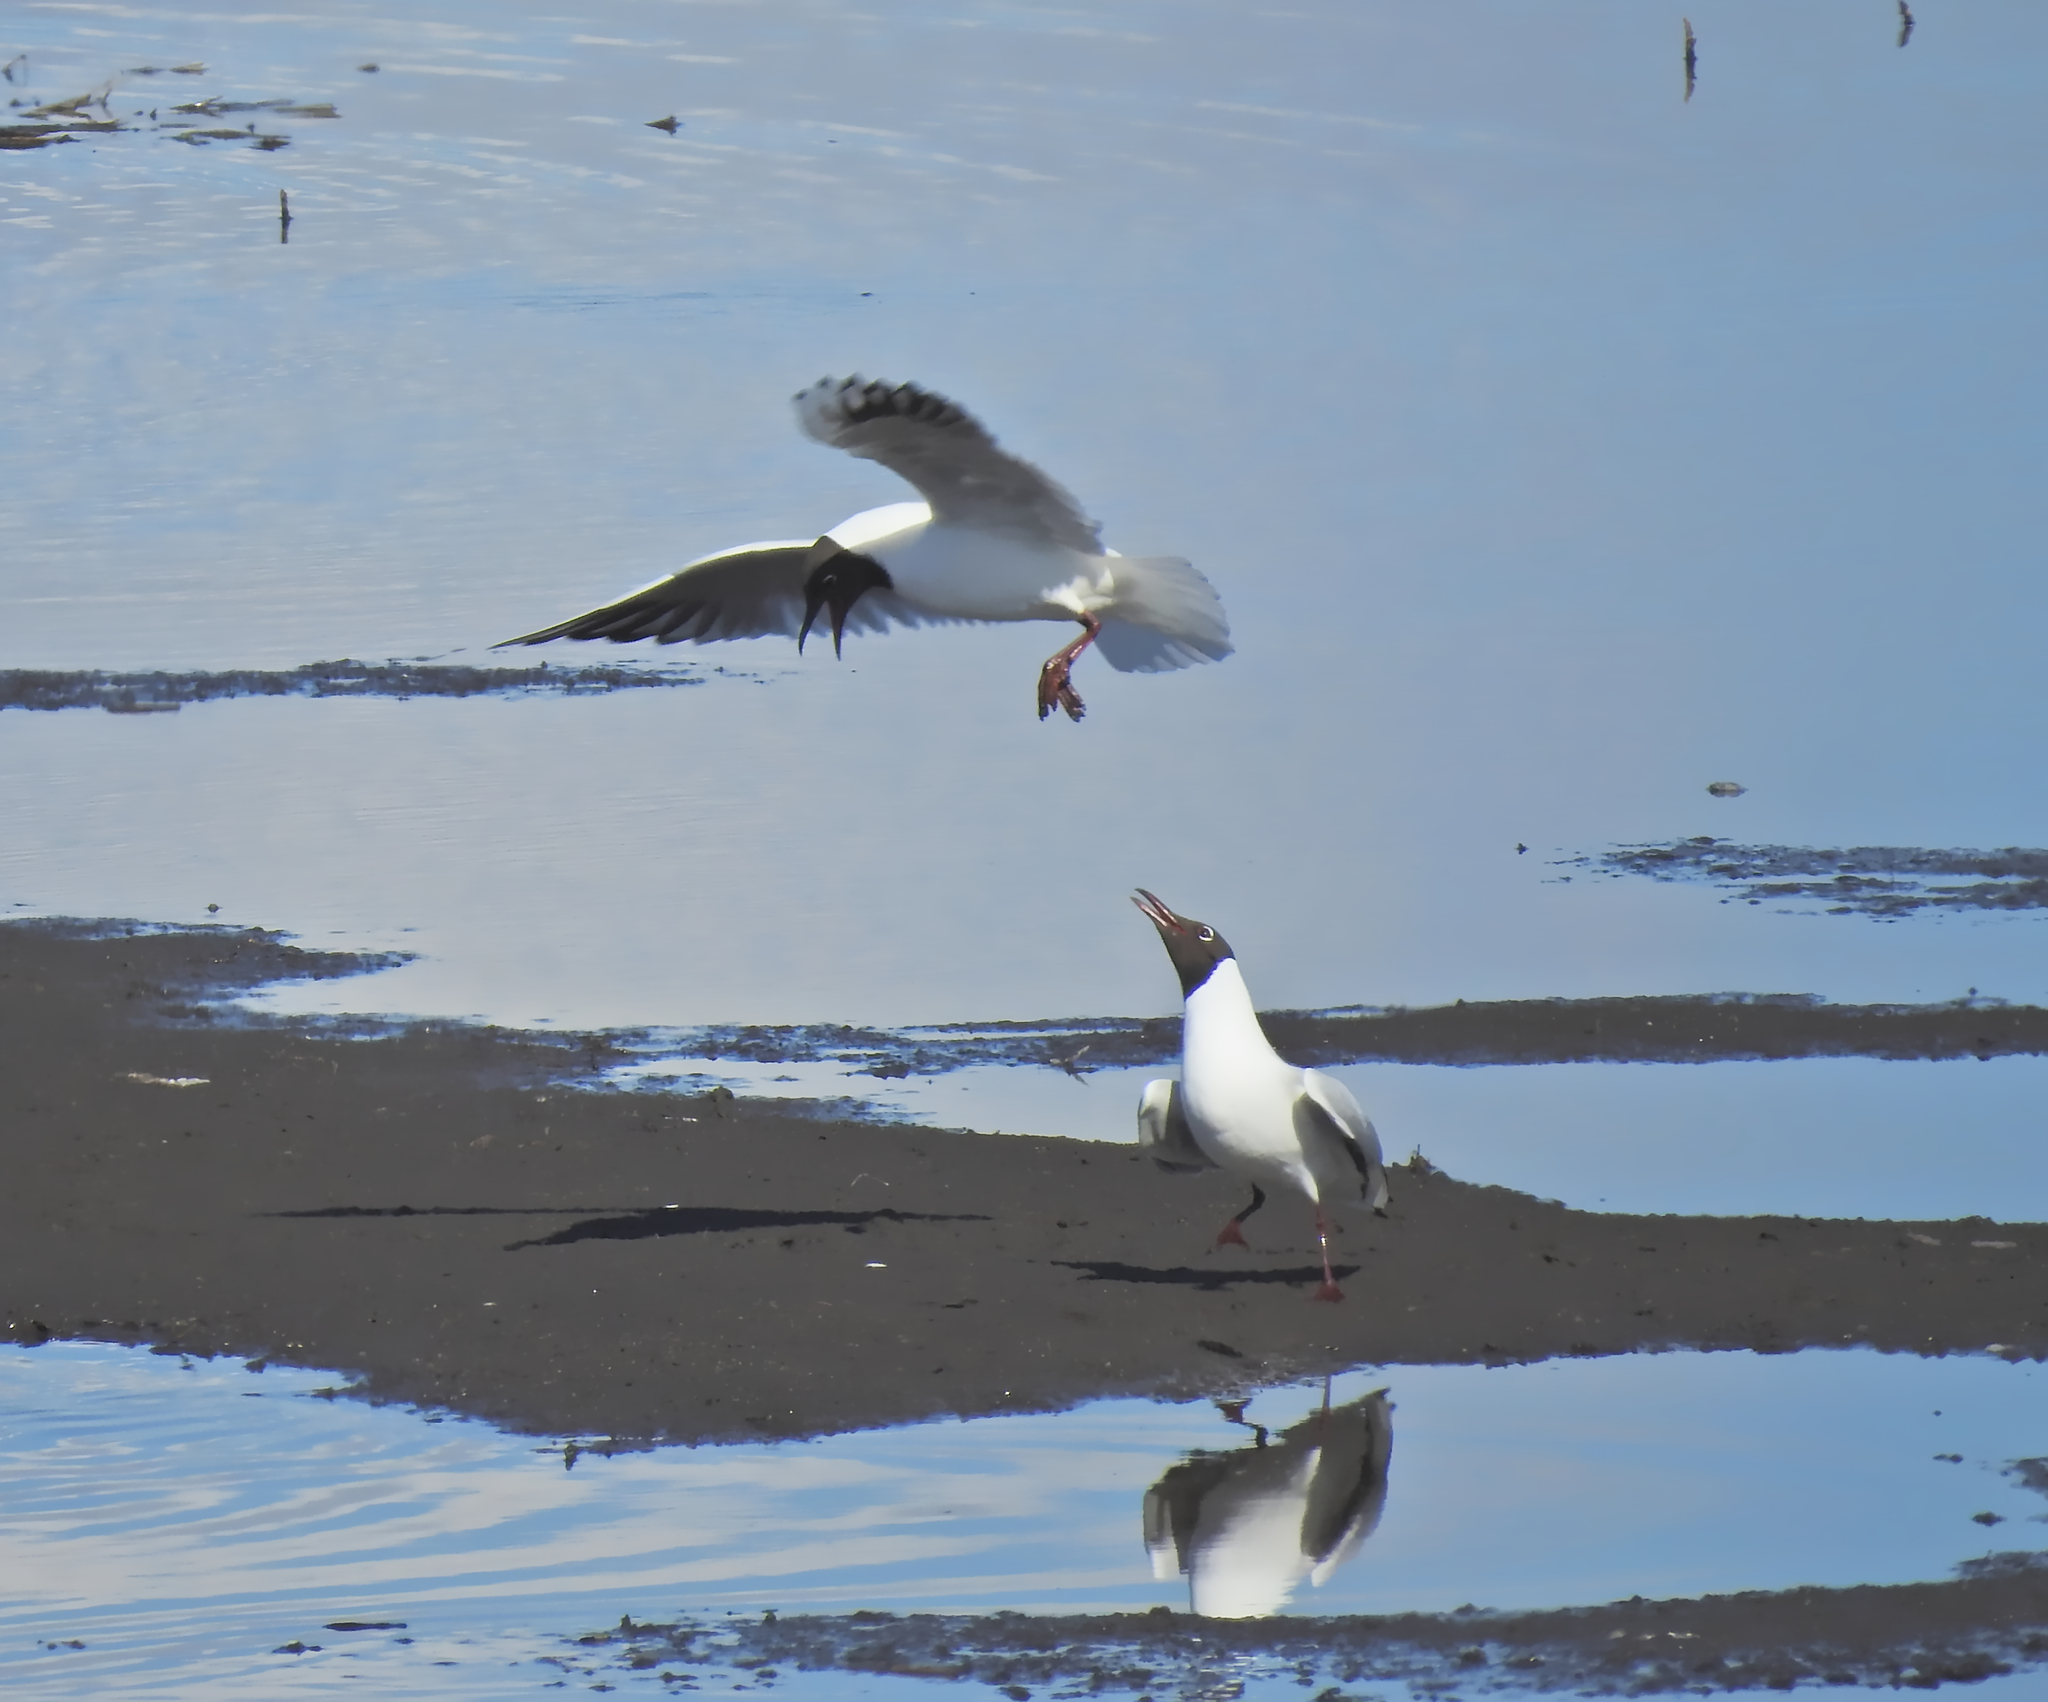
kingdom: Animalia
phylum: Chordata
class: Aves
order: Charadriiformes
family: Laridae
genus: Chroicocephalus
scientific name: Chroicocephalus ridibundus
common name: Black-headed gull
